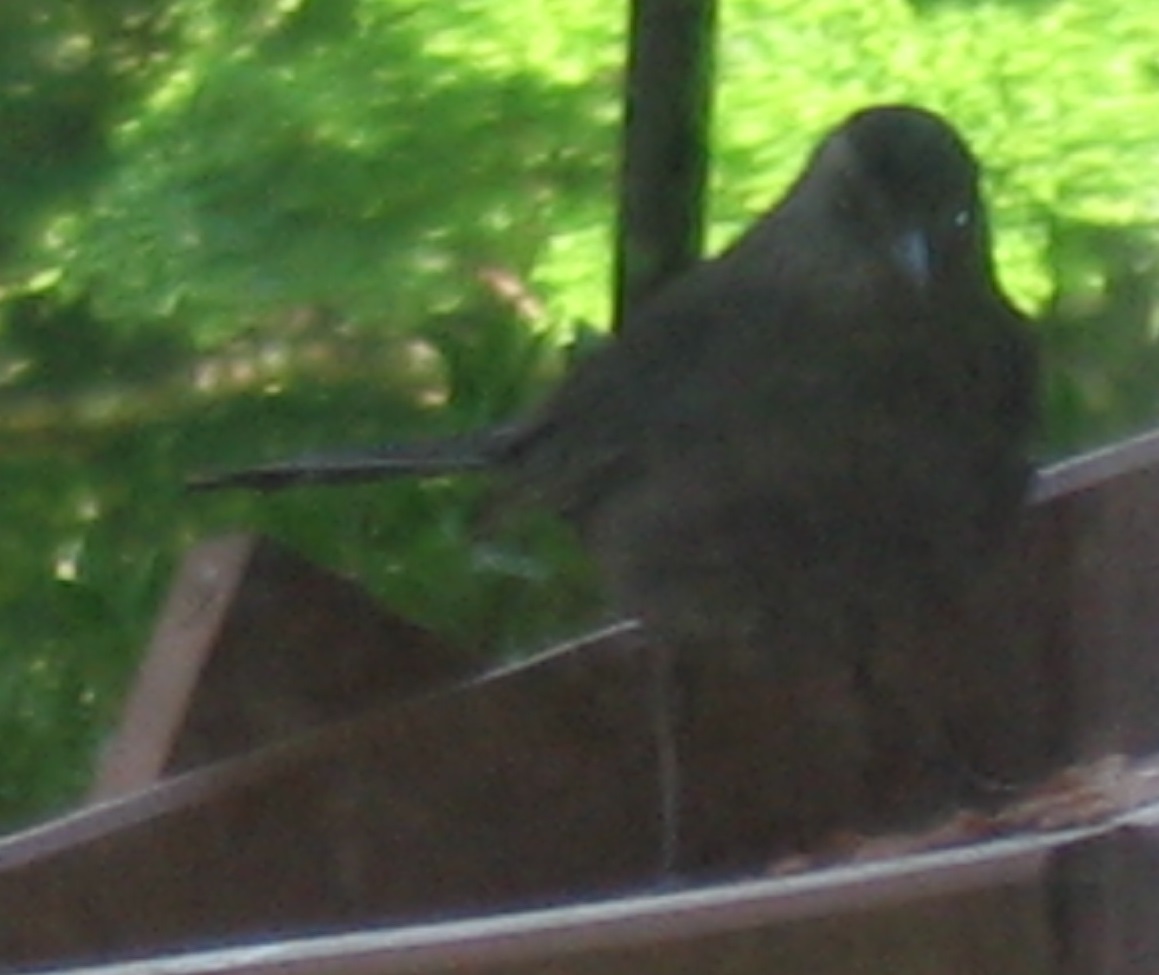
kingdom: Animalia
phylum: Chordata
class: Aves
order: Passeriformes
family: Mimidae
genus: Dumetella
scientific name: Dumetella carolinensis
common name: Gray catbird
